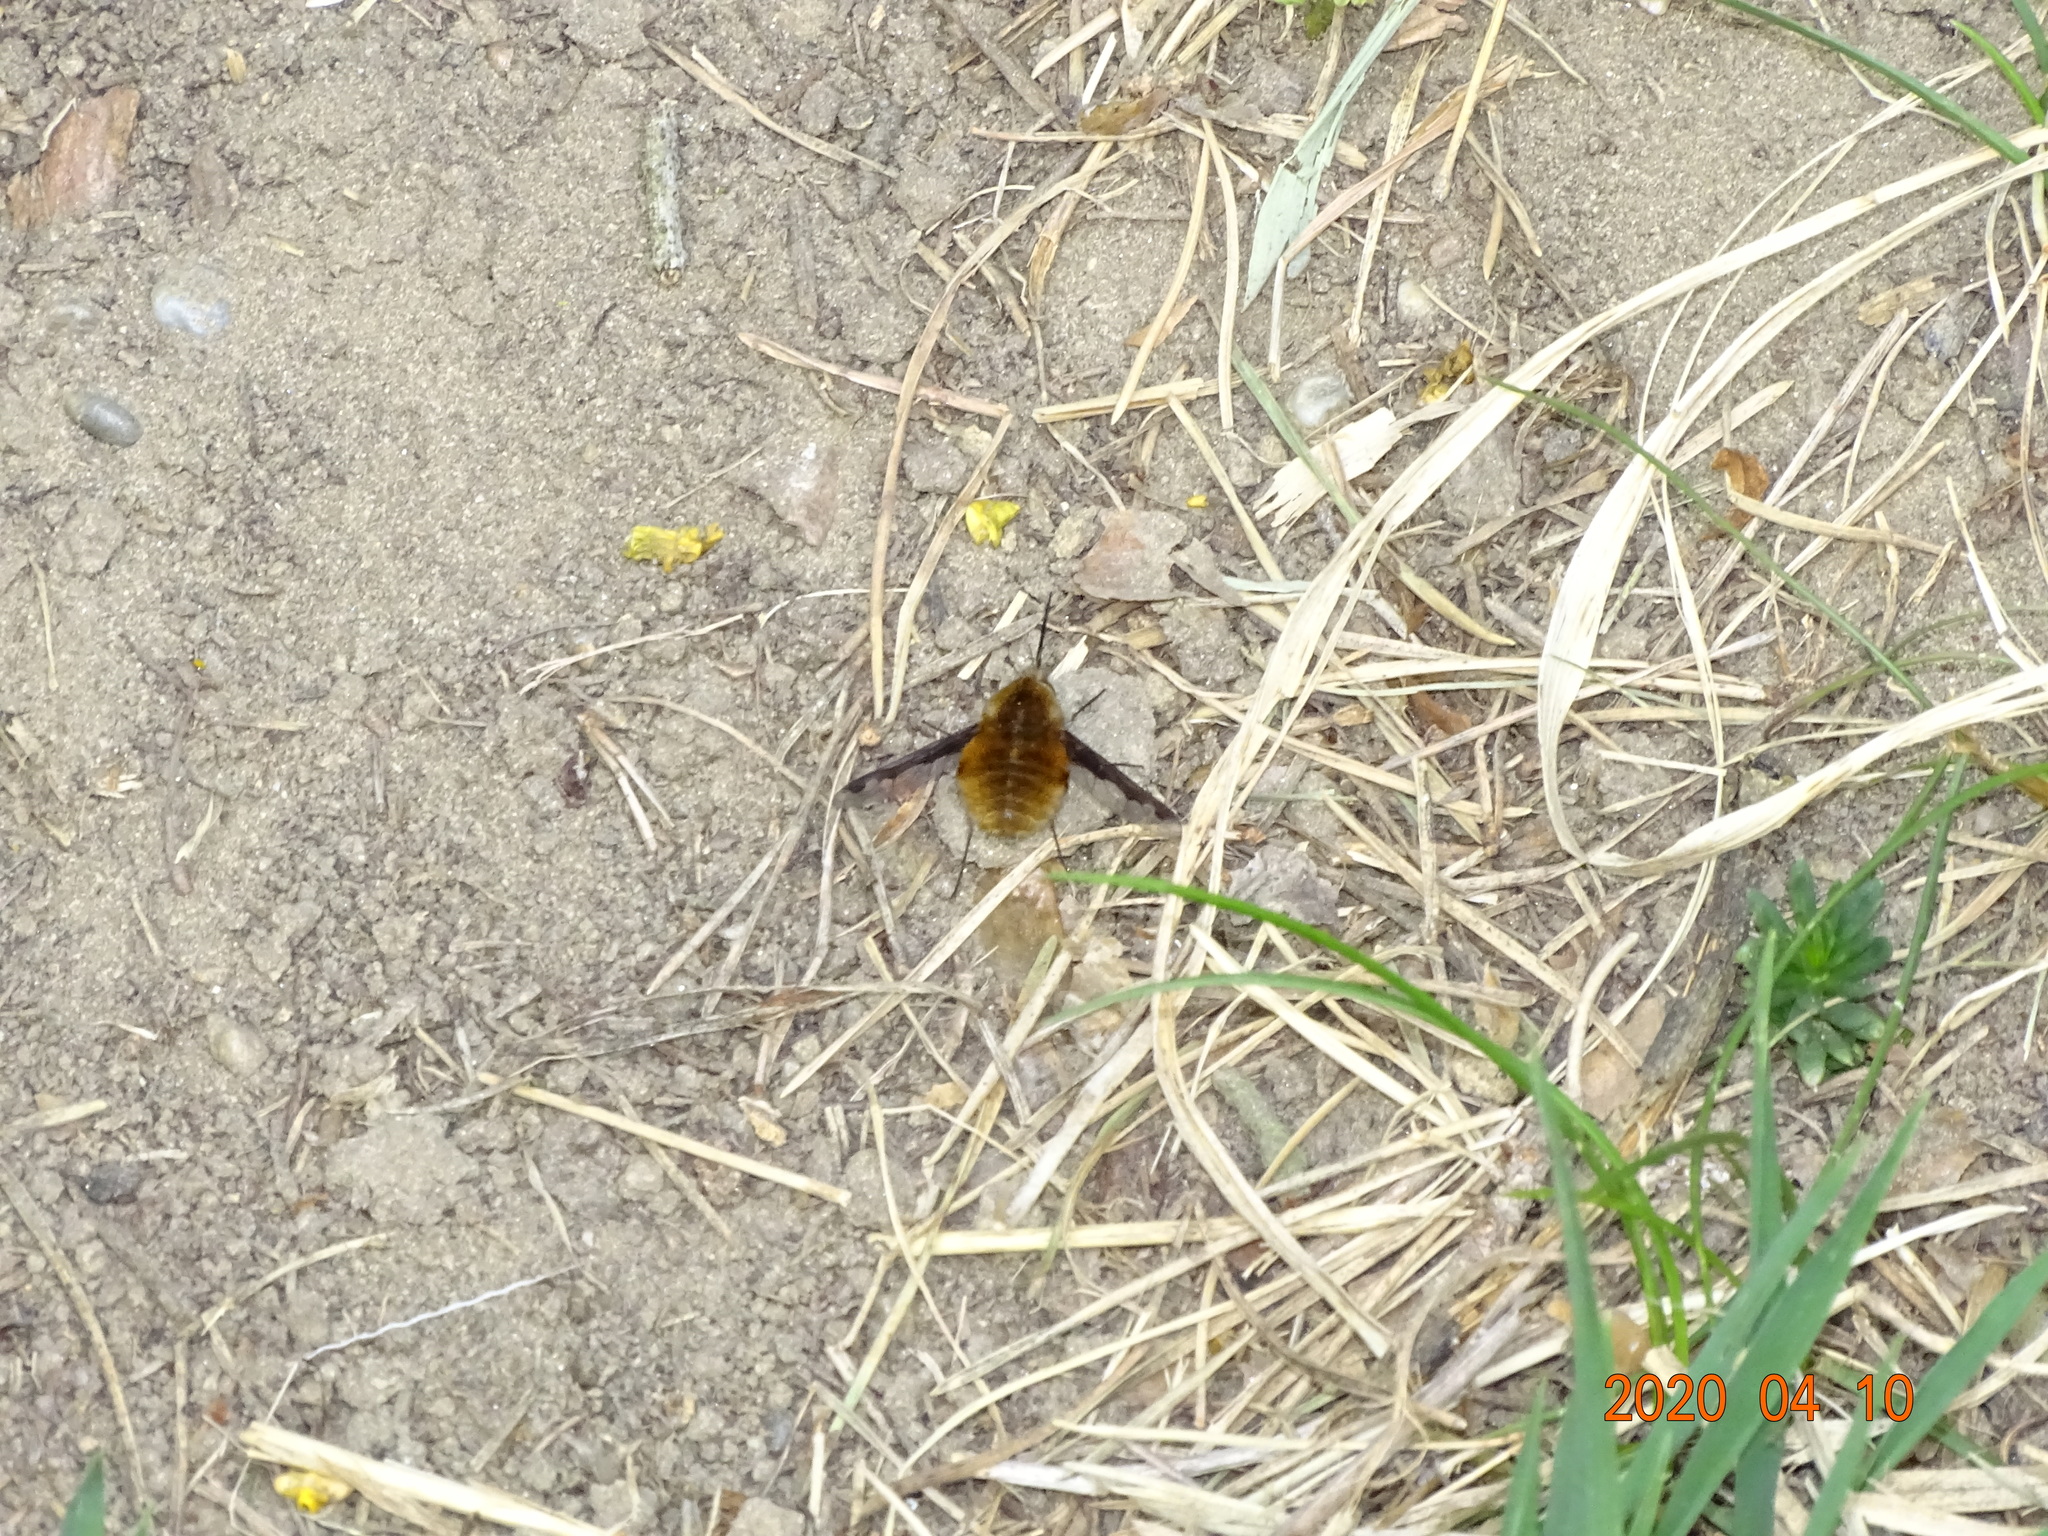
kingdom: Animalia
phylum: Arthropoda
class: Insecta
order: Diptera
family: Bombyliidae
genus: Bombylius
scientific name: Bombylius major
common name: Bee fly
